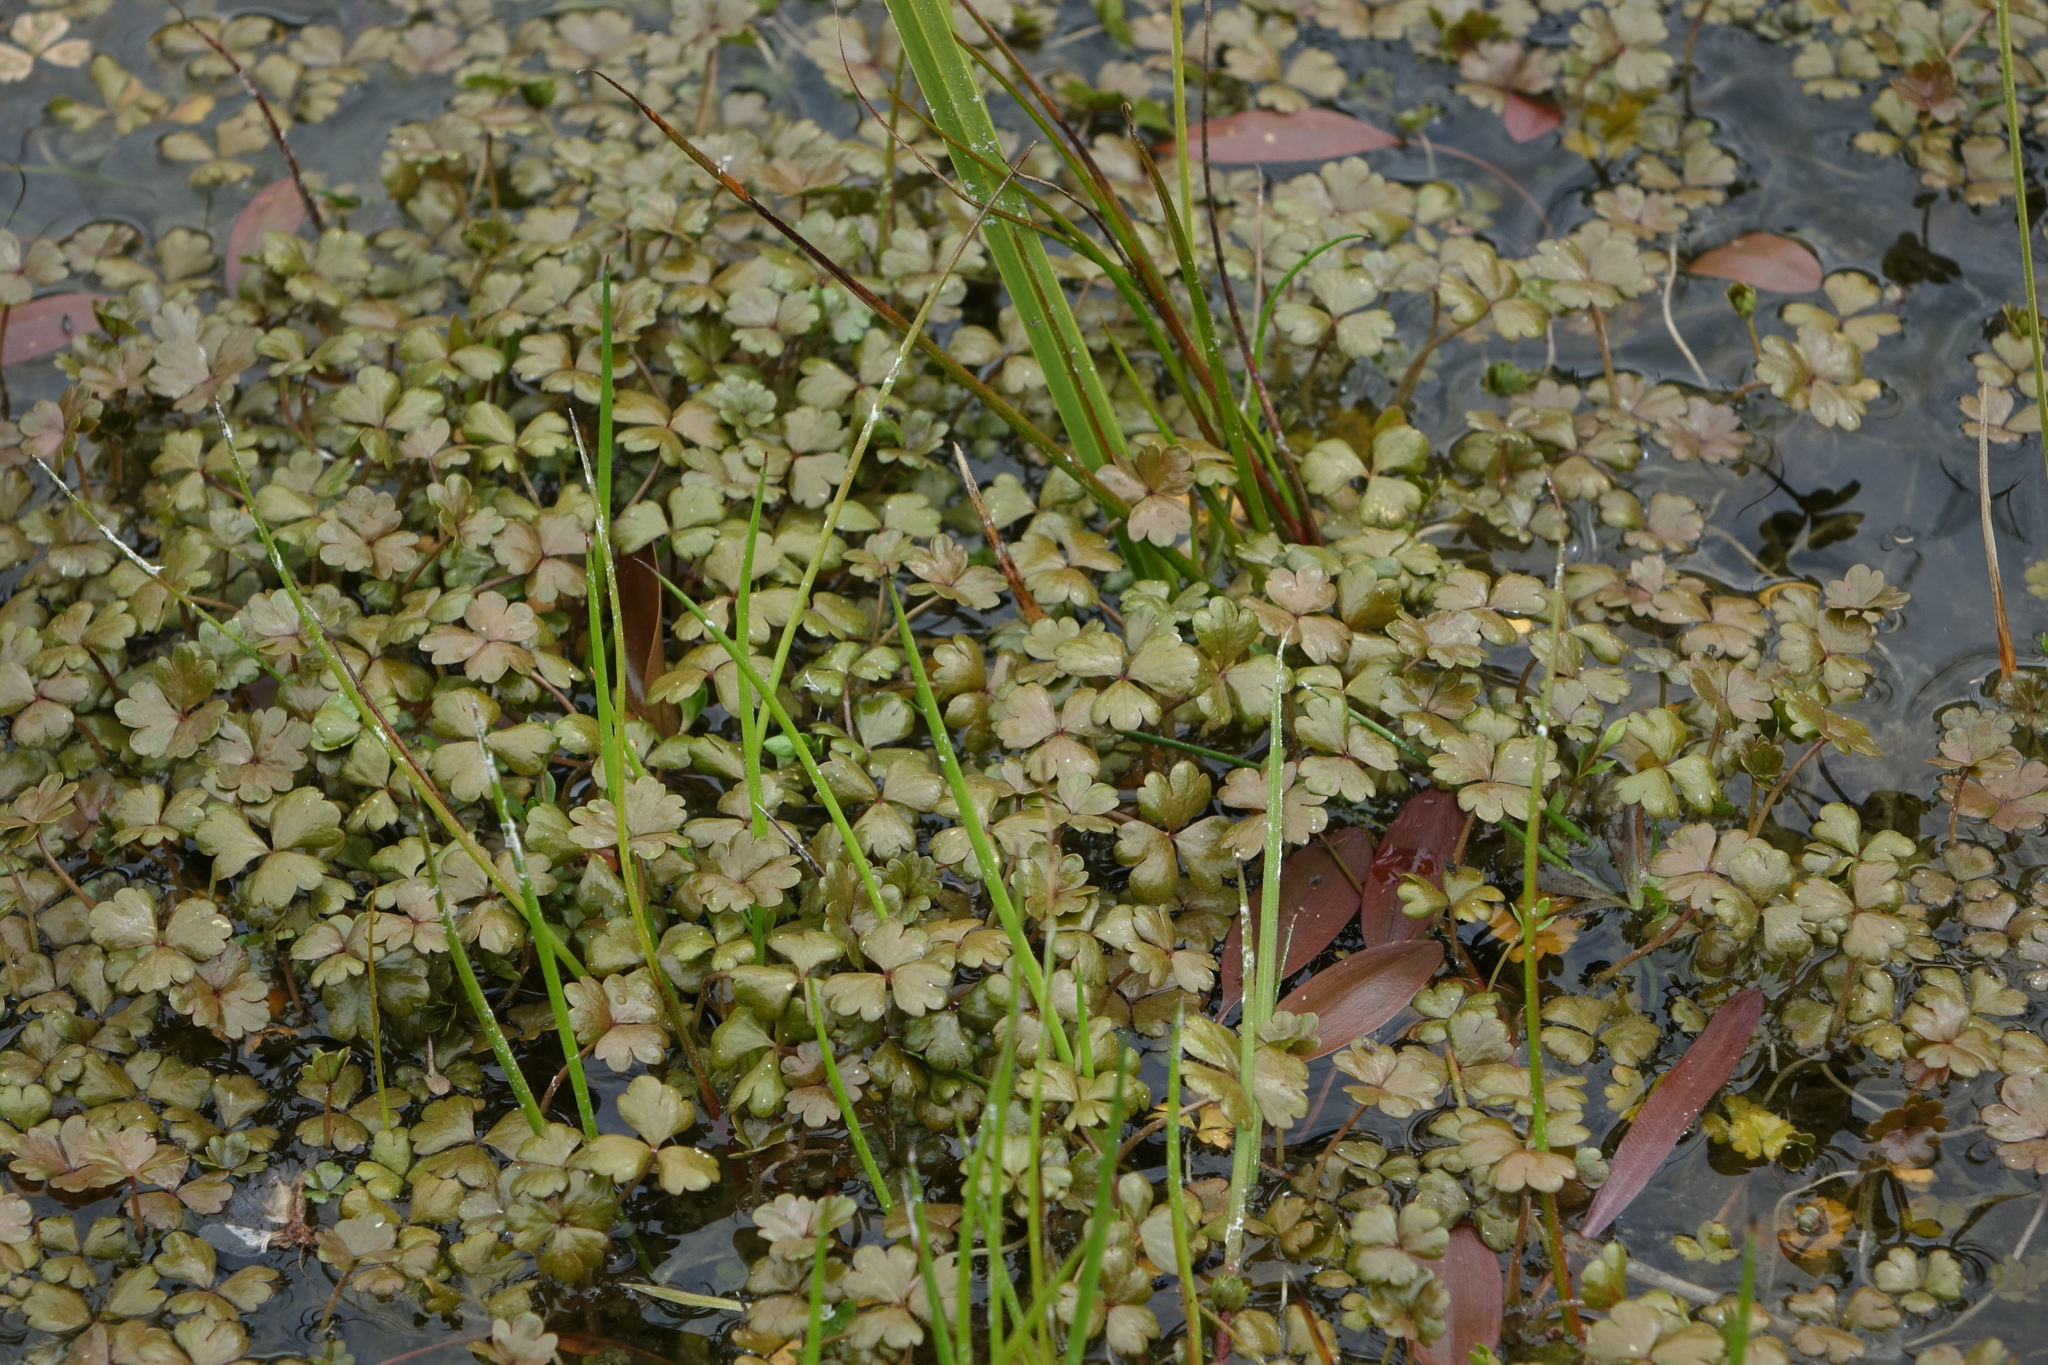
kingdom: Plantae
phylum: Tracheophyta
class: Magnoliopsida
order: Apiales
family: Araliaceae
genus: Hydrocotyle
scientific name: Hydrocotyle sulcata
